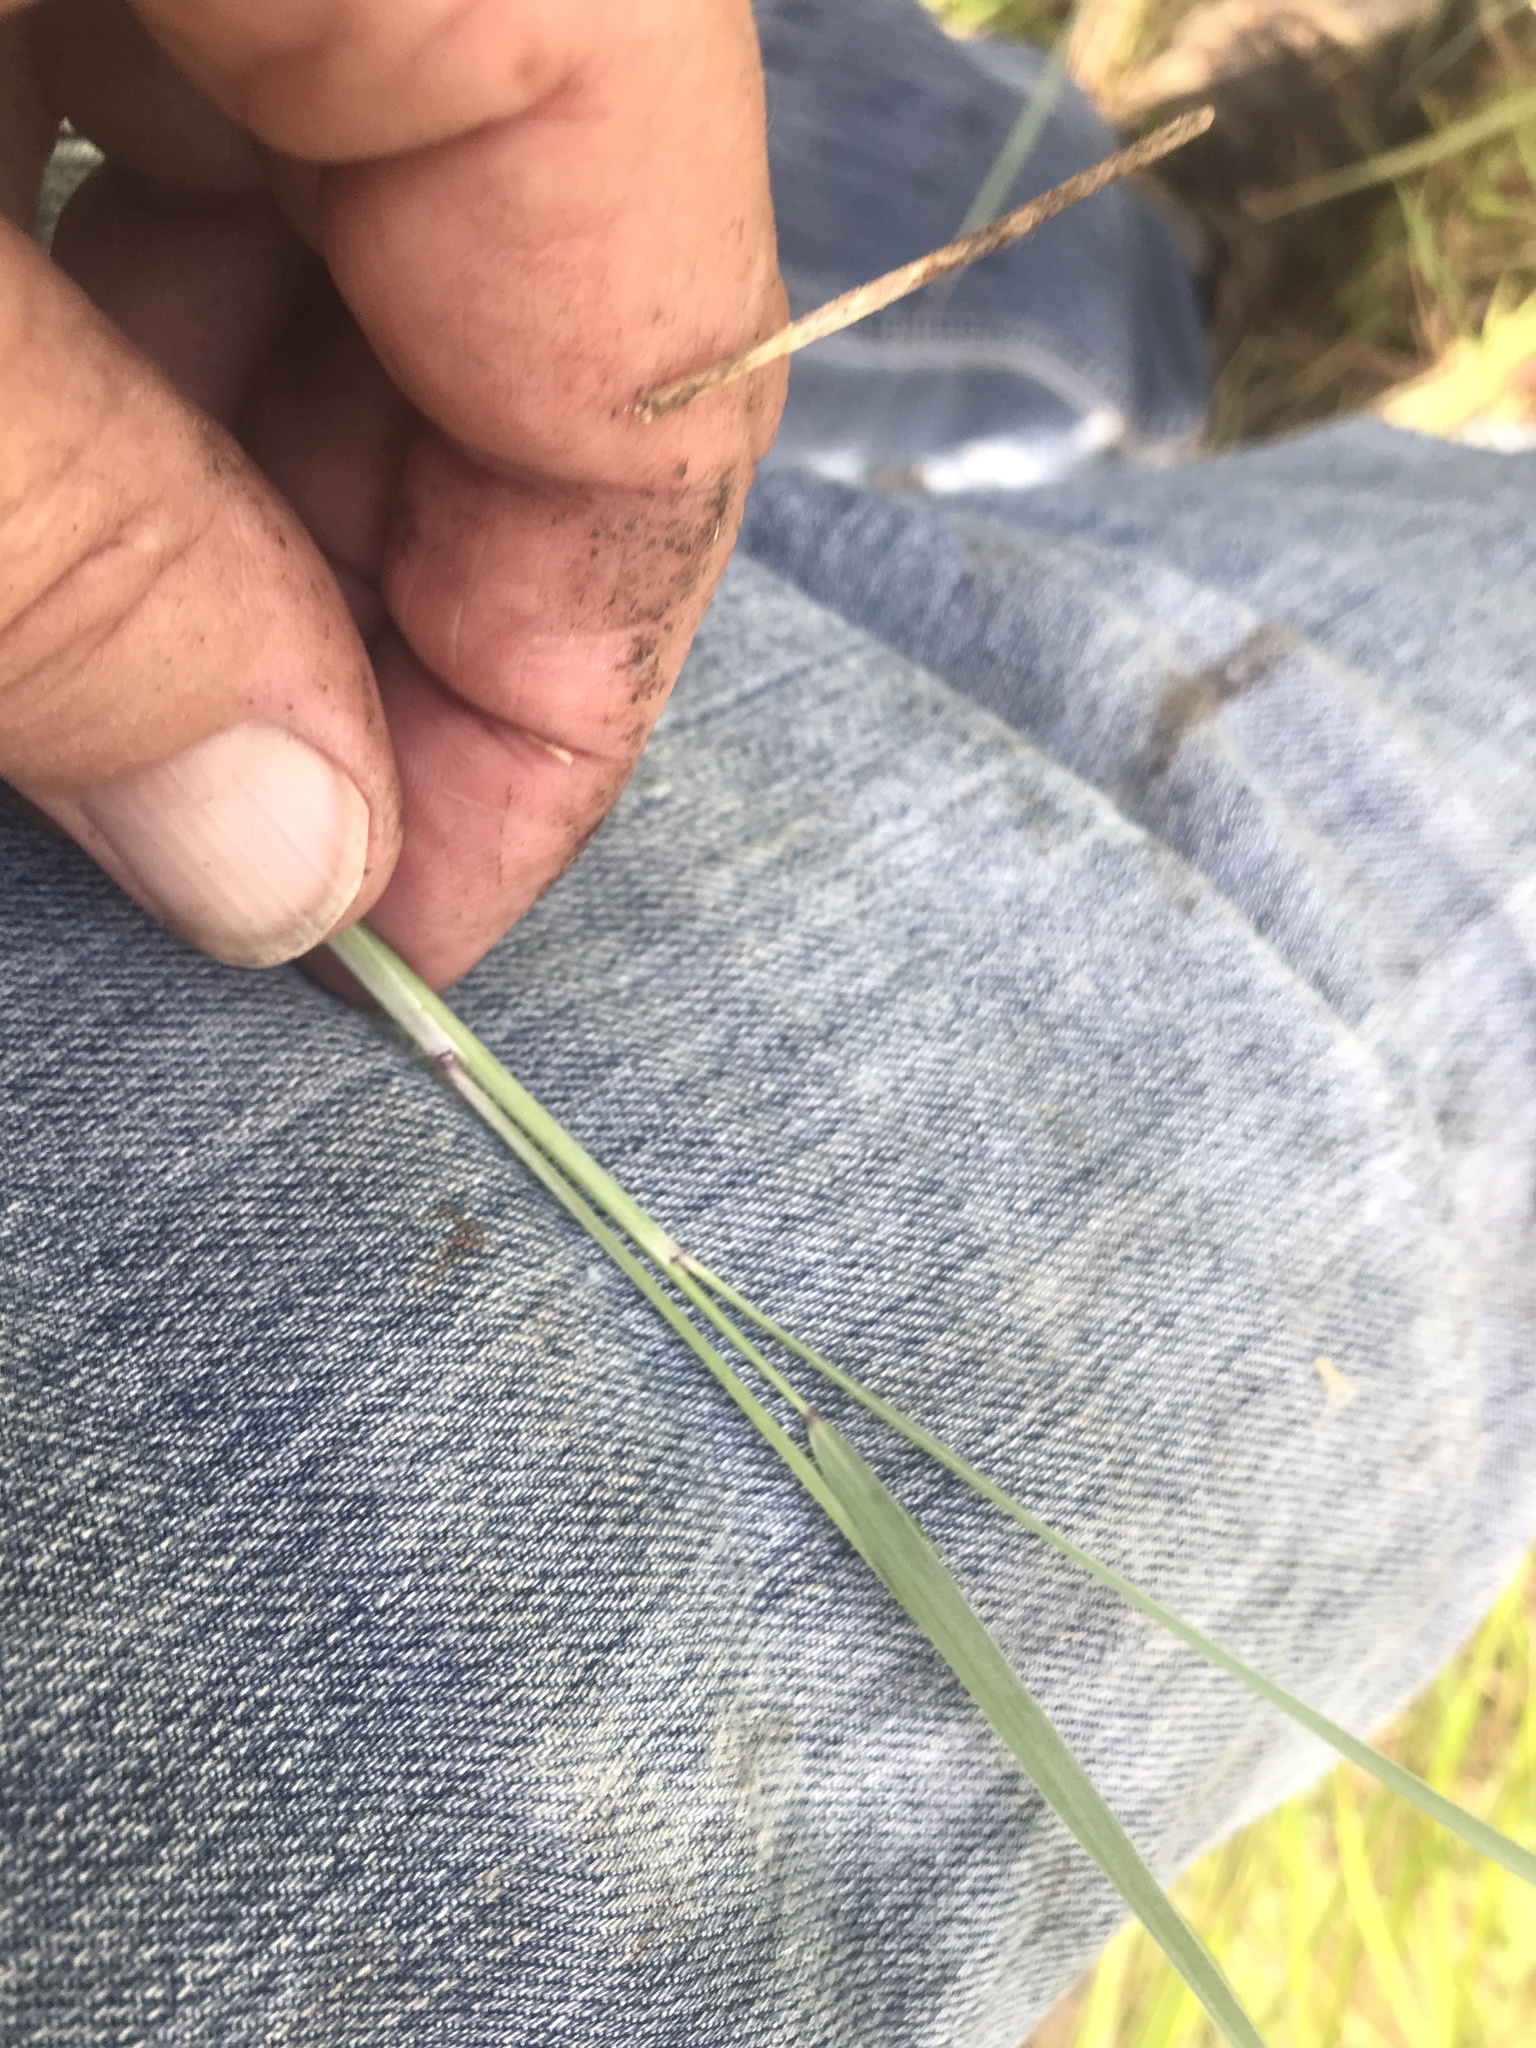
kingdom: Plantae
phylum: Tracheophyta
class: Liliopsida
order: Poales
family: Poaceae
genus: Stapfochloa
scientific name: Stapfochloa canterae
